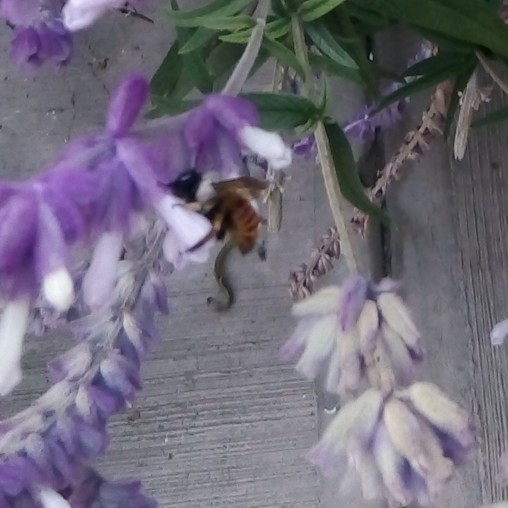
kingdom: Animalia
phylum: Arthropoda
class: Insecta
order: Hymenoptera
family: Apidae
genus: Xylocopa
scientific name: Xylocopa tabaniformis
